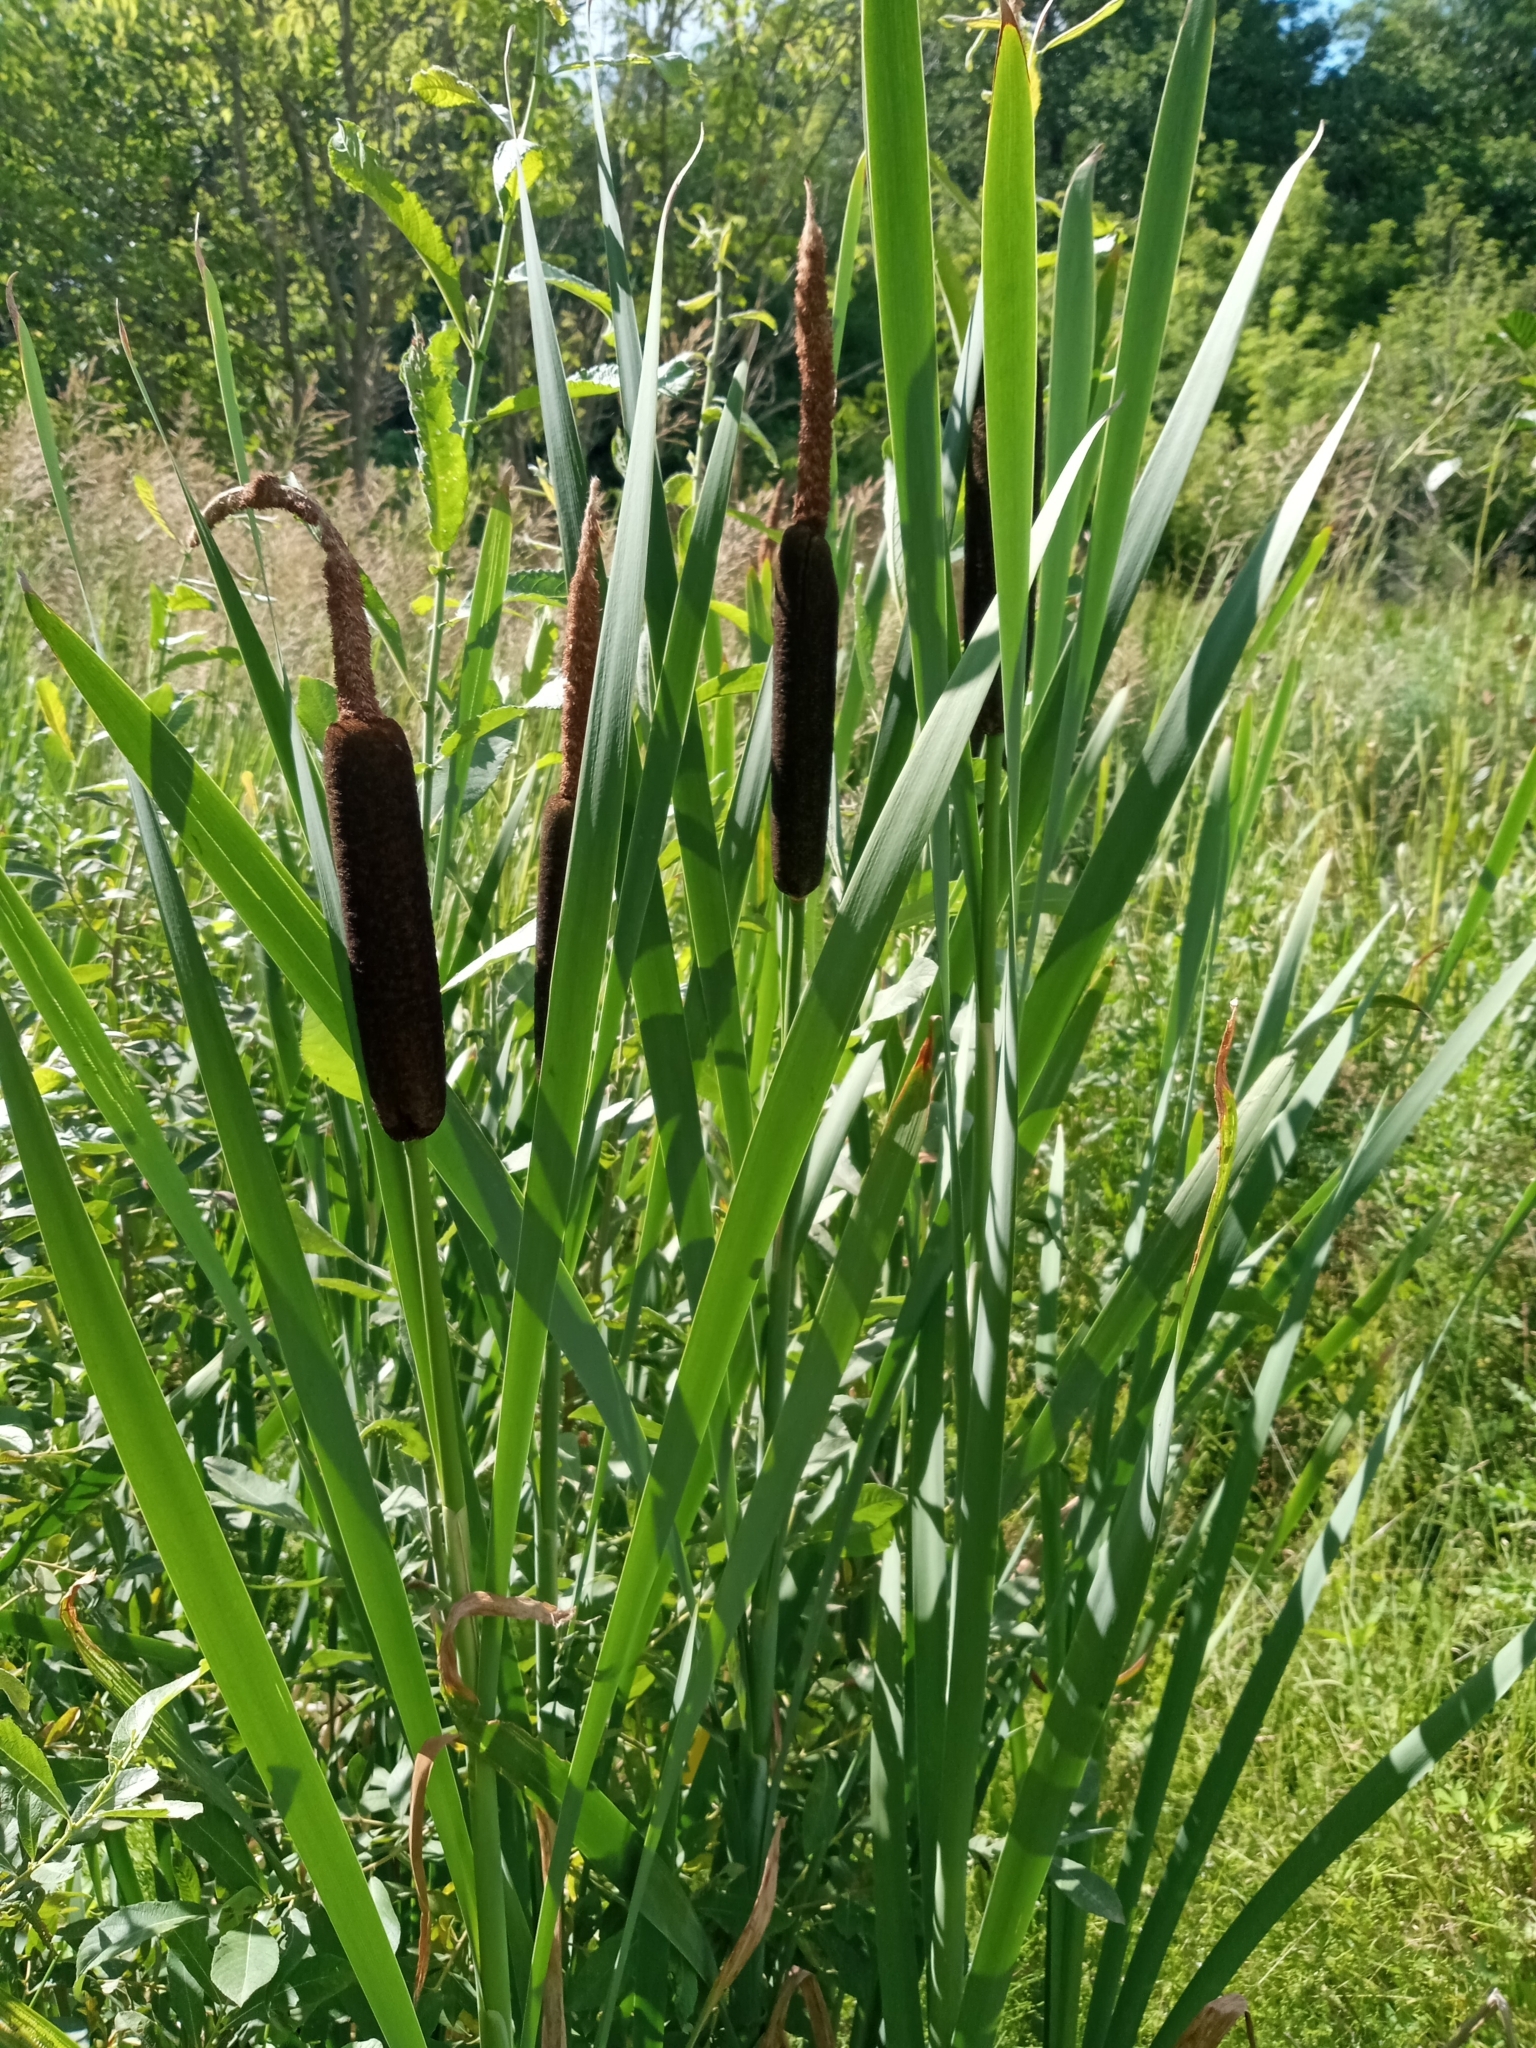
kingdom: Plantae
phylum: Tracheophyta
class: Liliopsida
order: Poales
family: Typhaceae
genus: Typha
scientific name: Typha latifolia
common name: Broadleaf cattail
